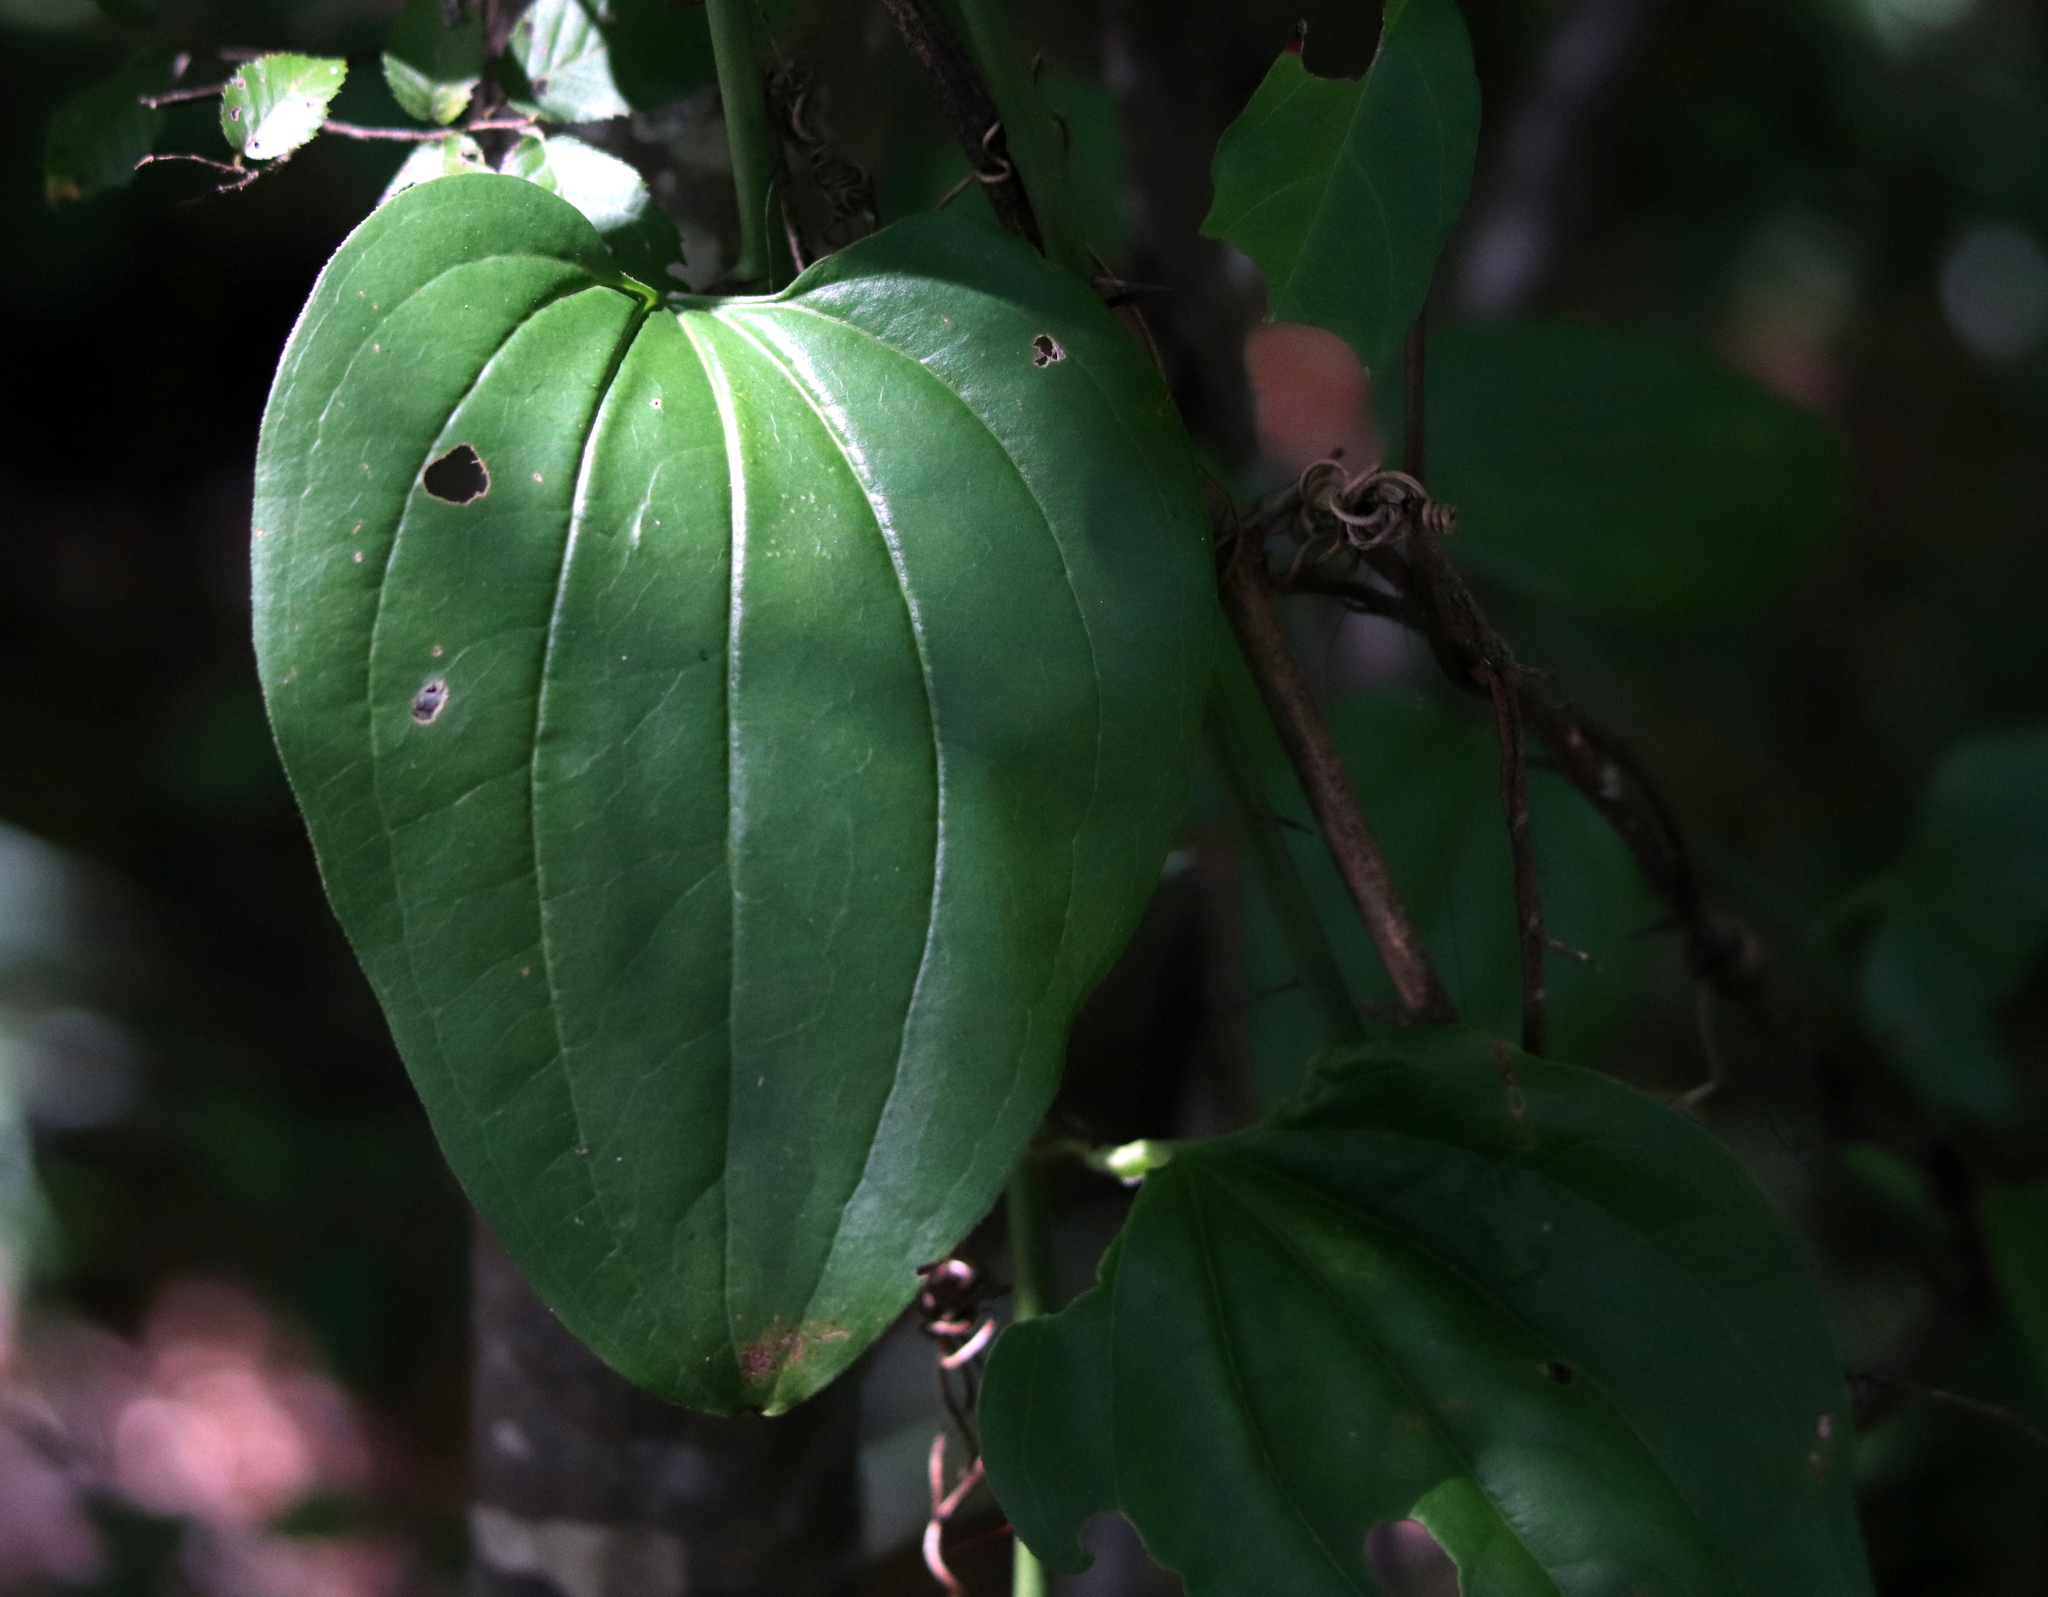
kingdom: Plantae
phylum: Tracheophyta
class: Liliopsida
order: Liliales
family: Smilacaceae
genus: Smilax
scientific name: Smilax tamnoides
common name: Hellfetter
